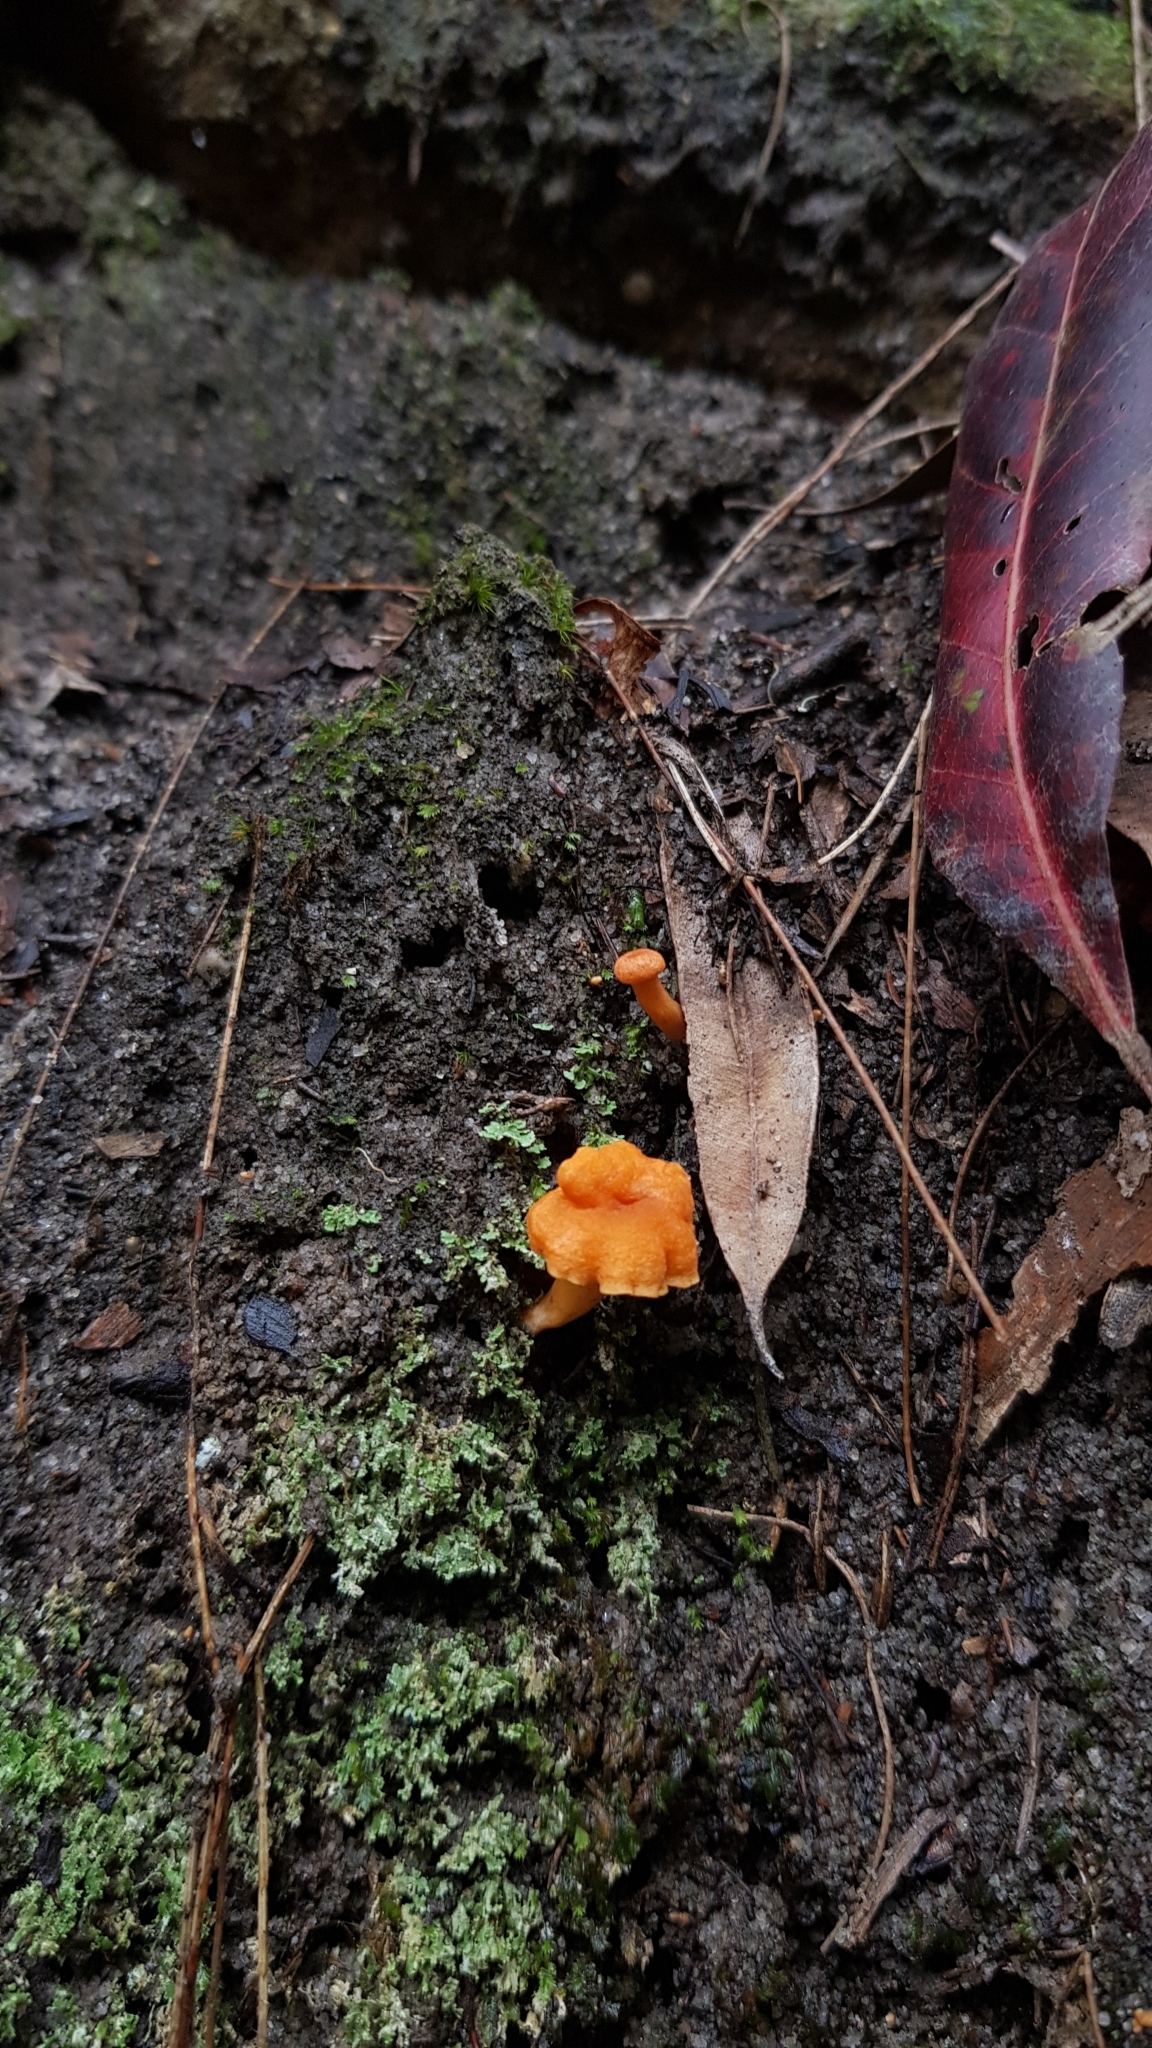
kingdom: Fungi
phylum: Basidiomycota
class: Agaricomycetes
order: Cantharellales
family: Hydnaceae
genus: Cantharellus
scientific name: Cantharellus
